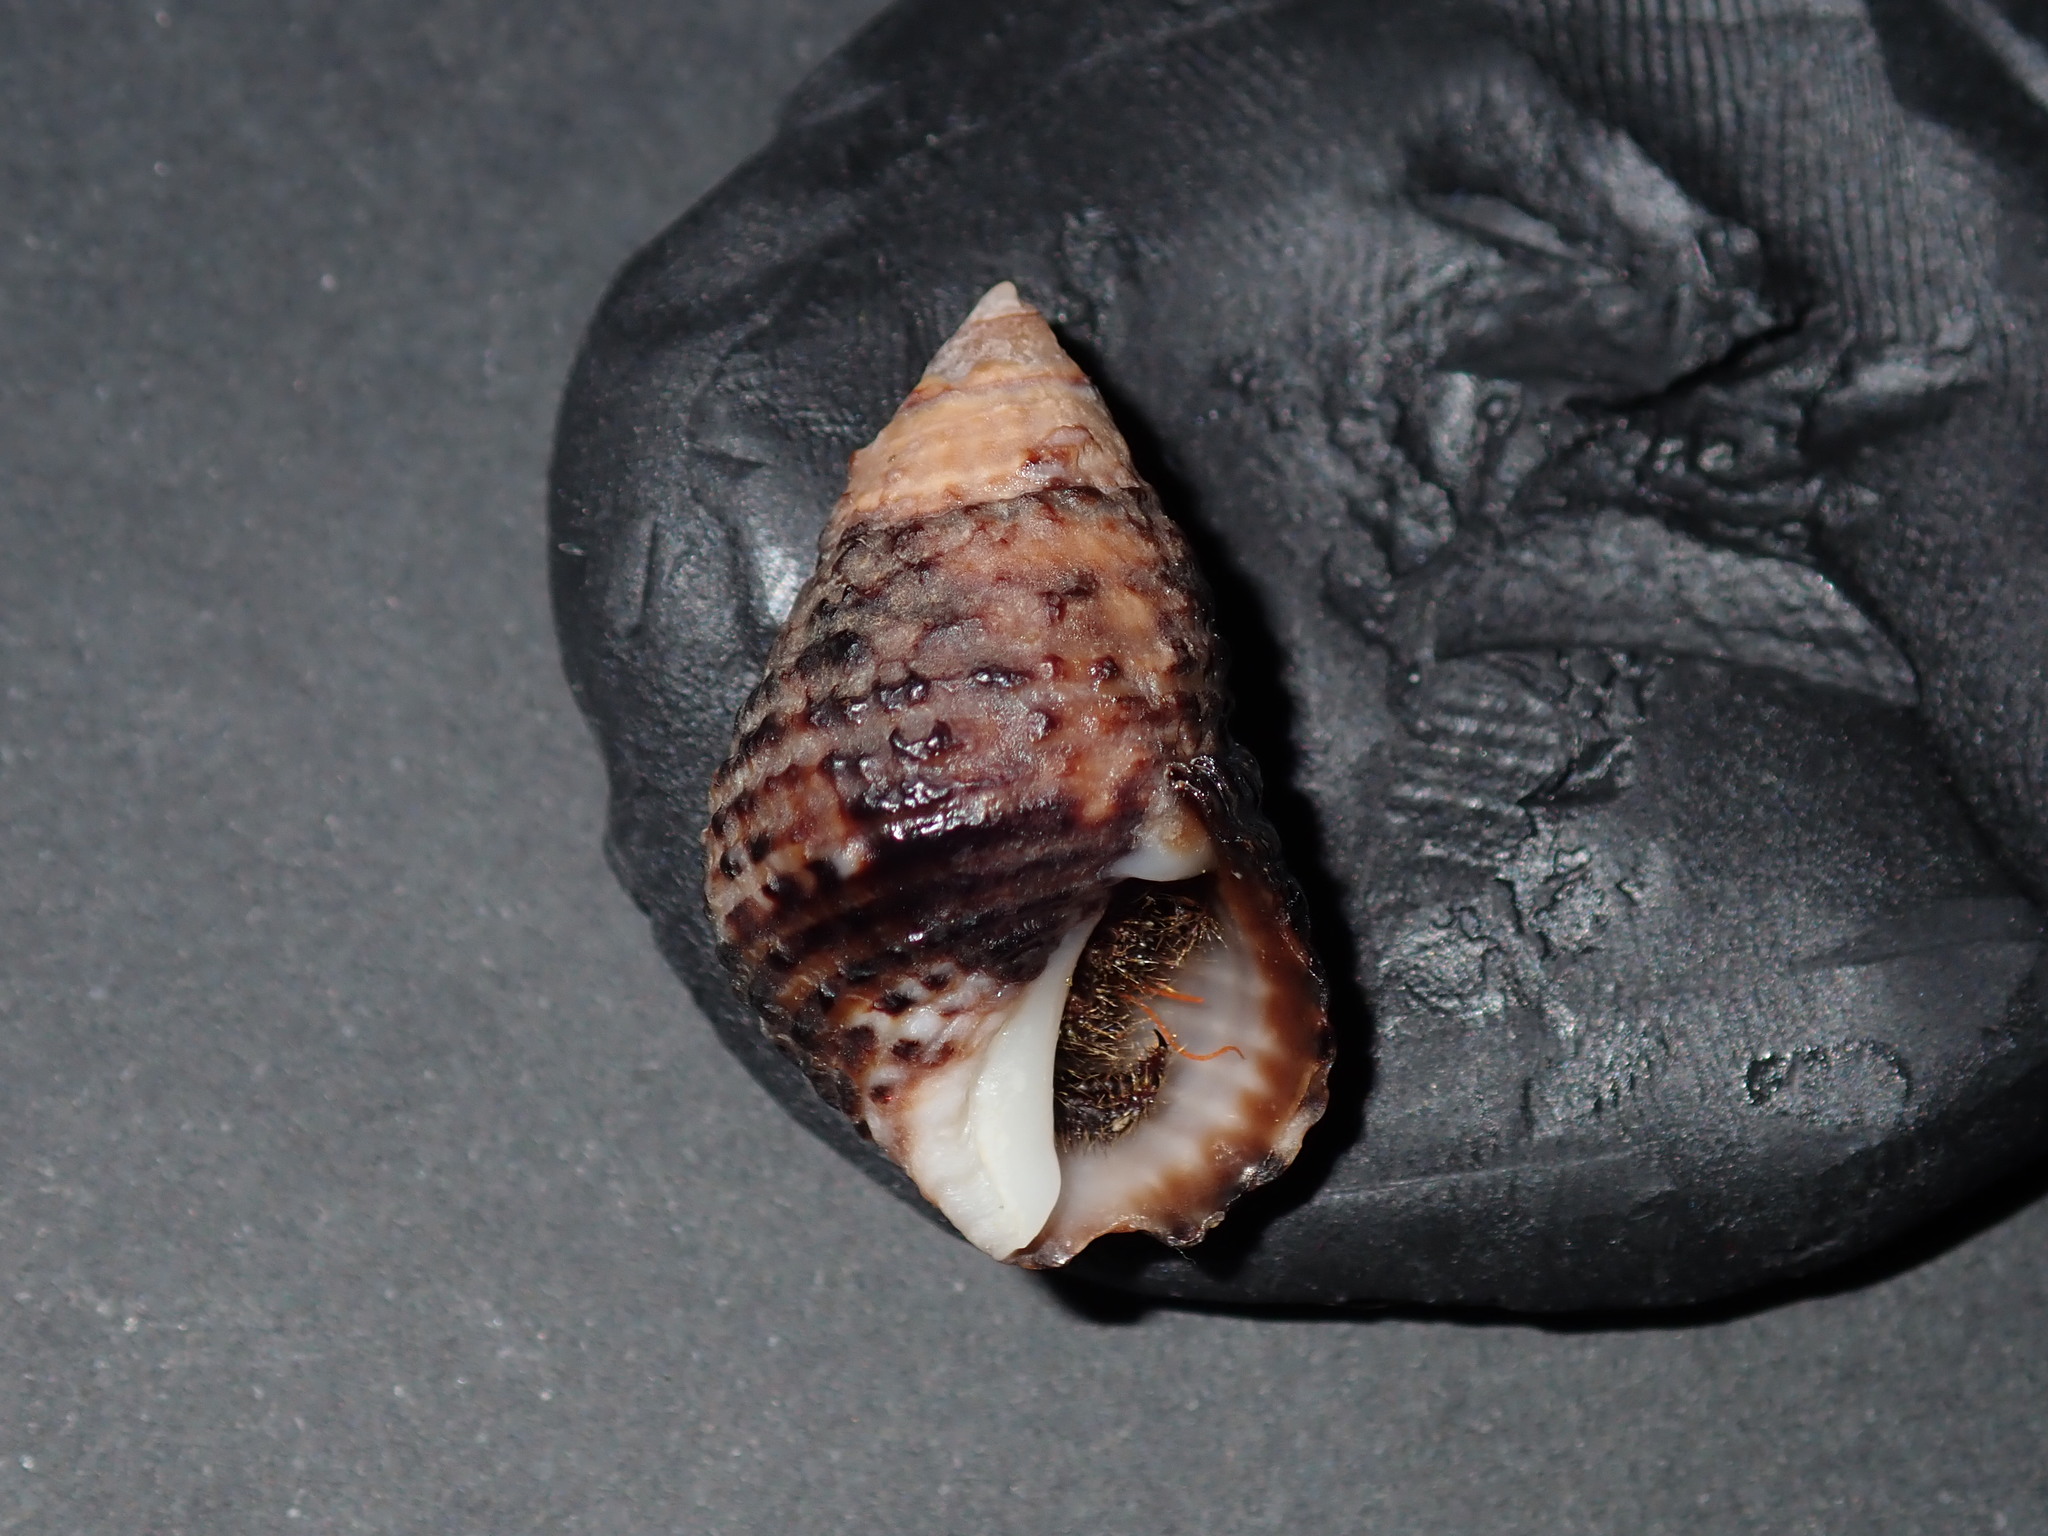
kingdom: Animalia
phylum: Mollusca
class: Gastropoda
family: Planaxidae
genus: Planaxis
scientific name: Planaxis sulcatus
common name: Furrowed planaxis
